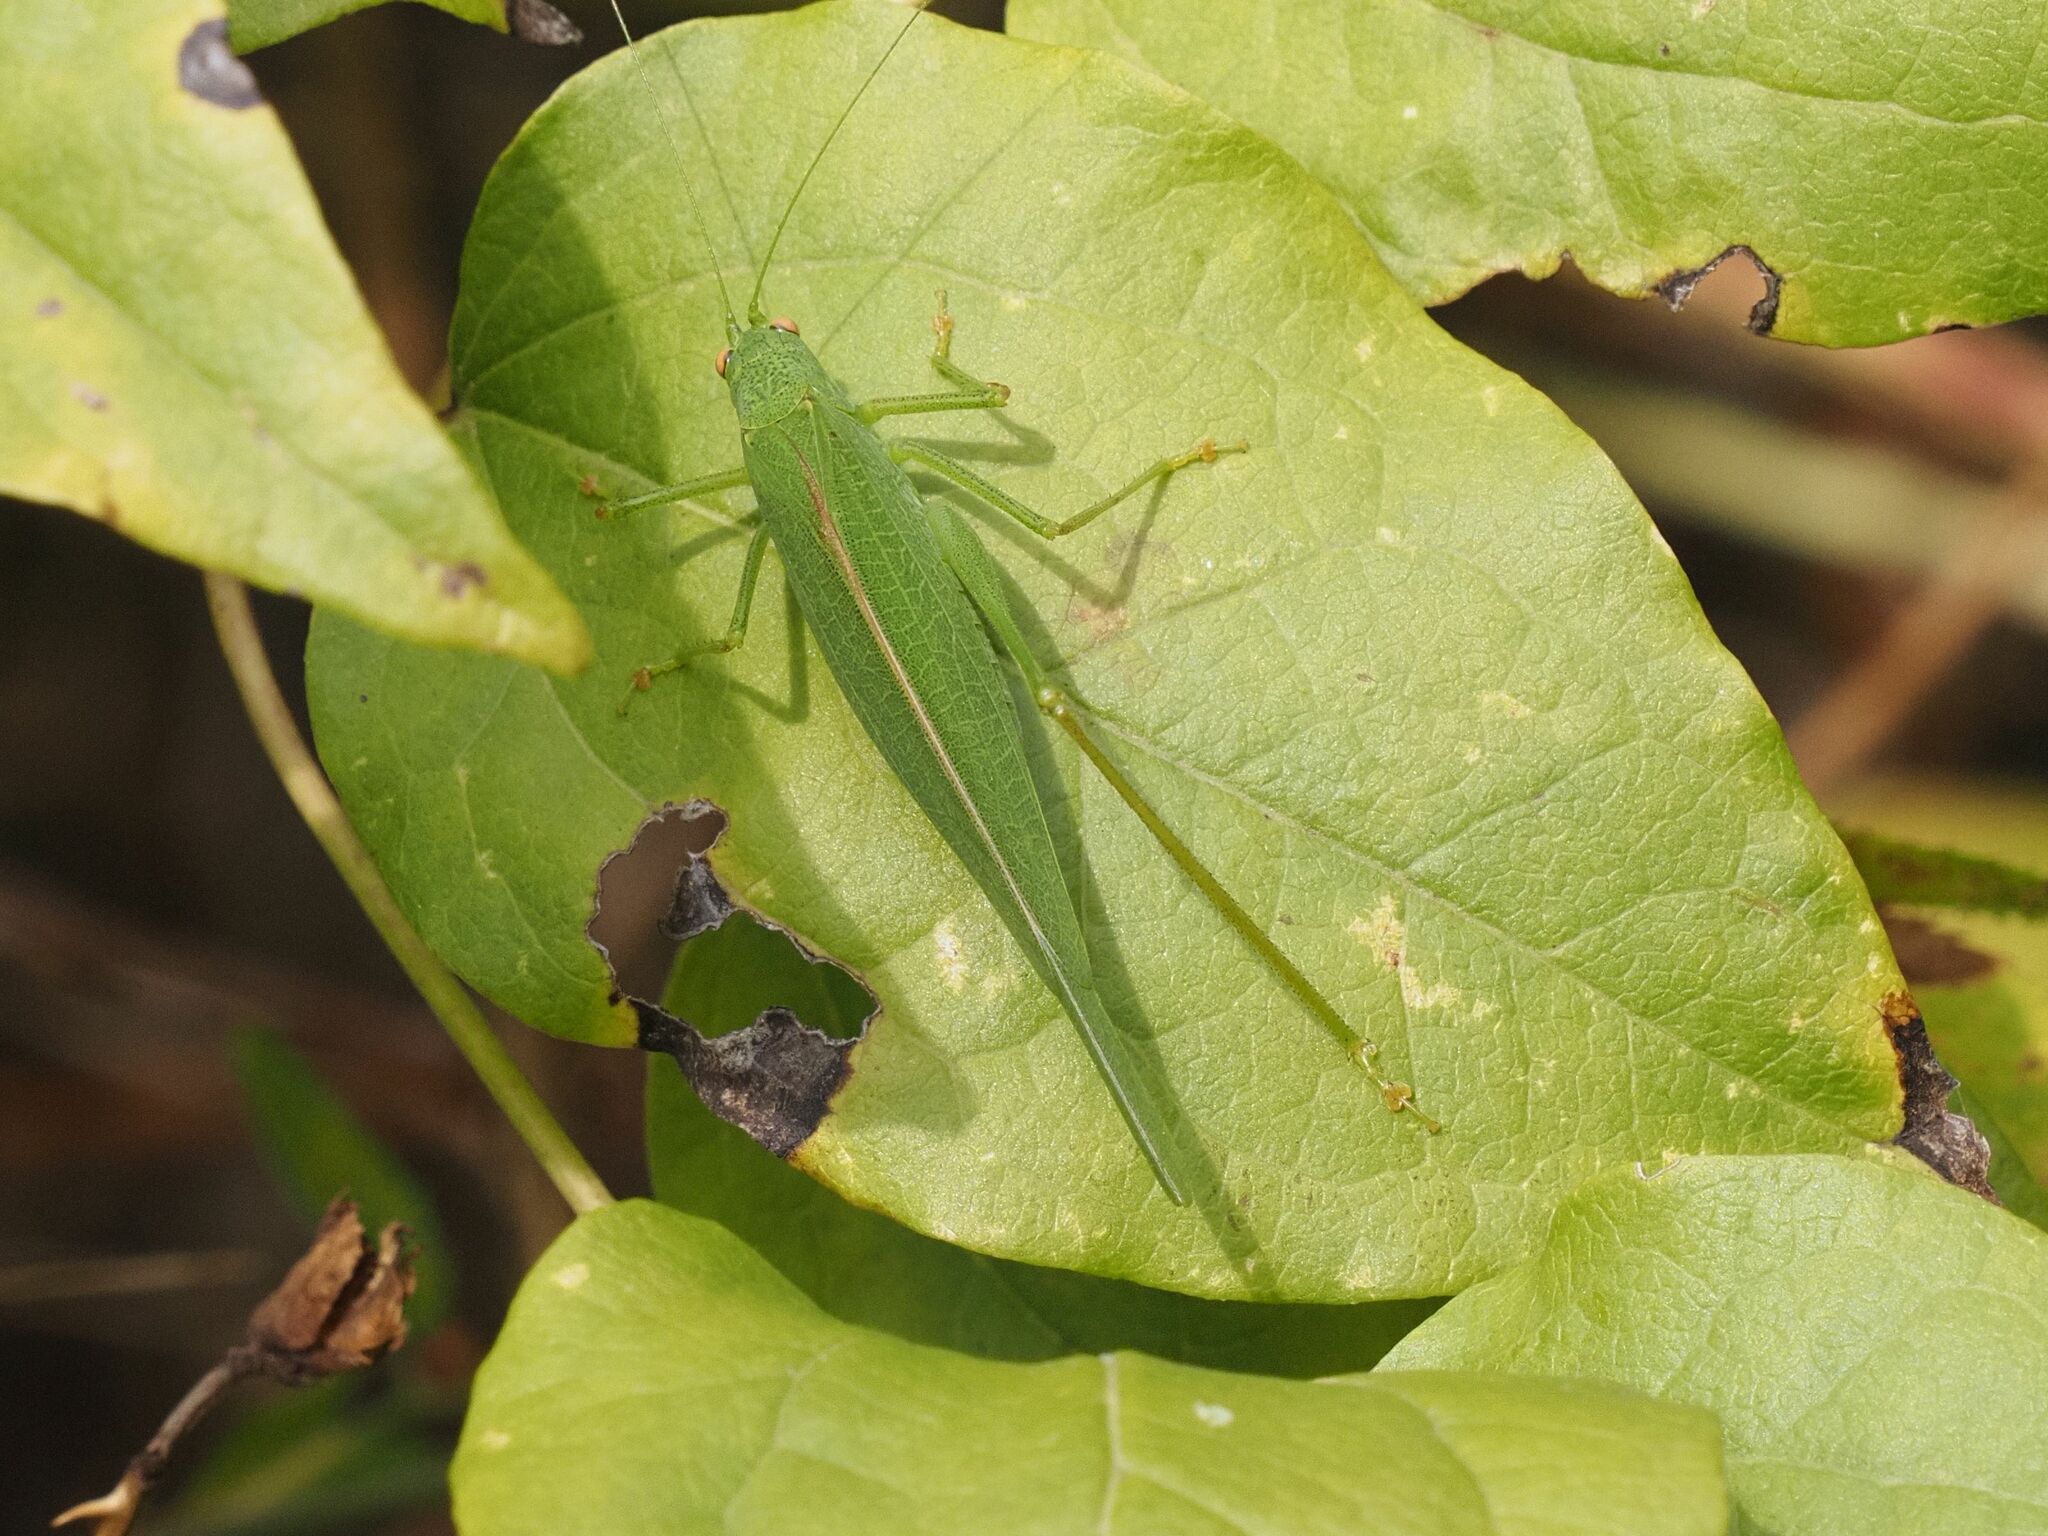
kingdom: Animalia
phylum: Arthropoda
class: Insecta
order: Orthoptera
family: Tettigoniidae
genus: Phaneroptera
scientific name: Phaneroptera nana
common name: Southern sickle bush-cricket
